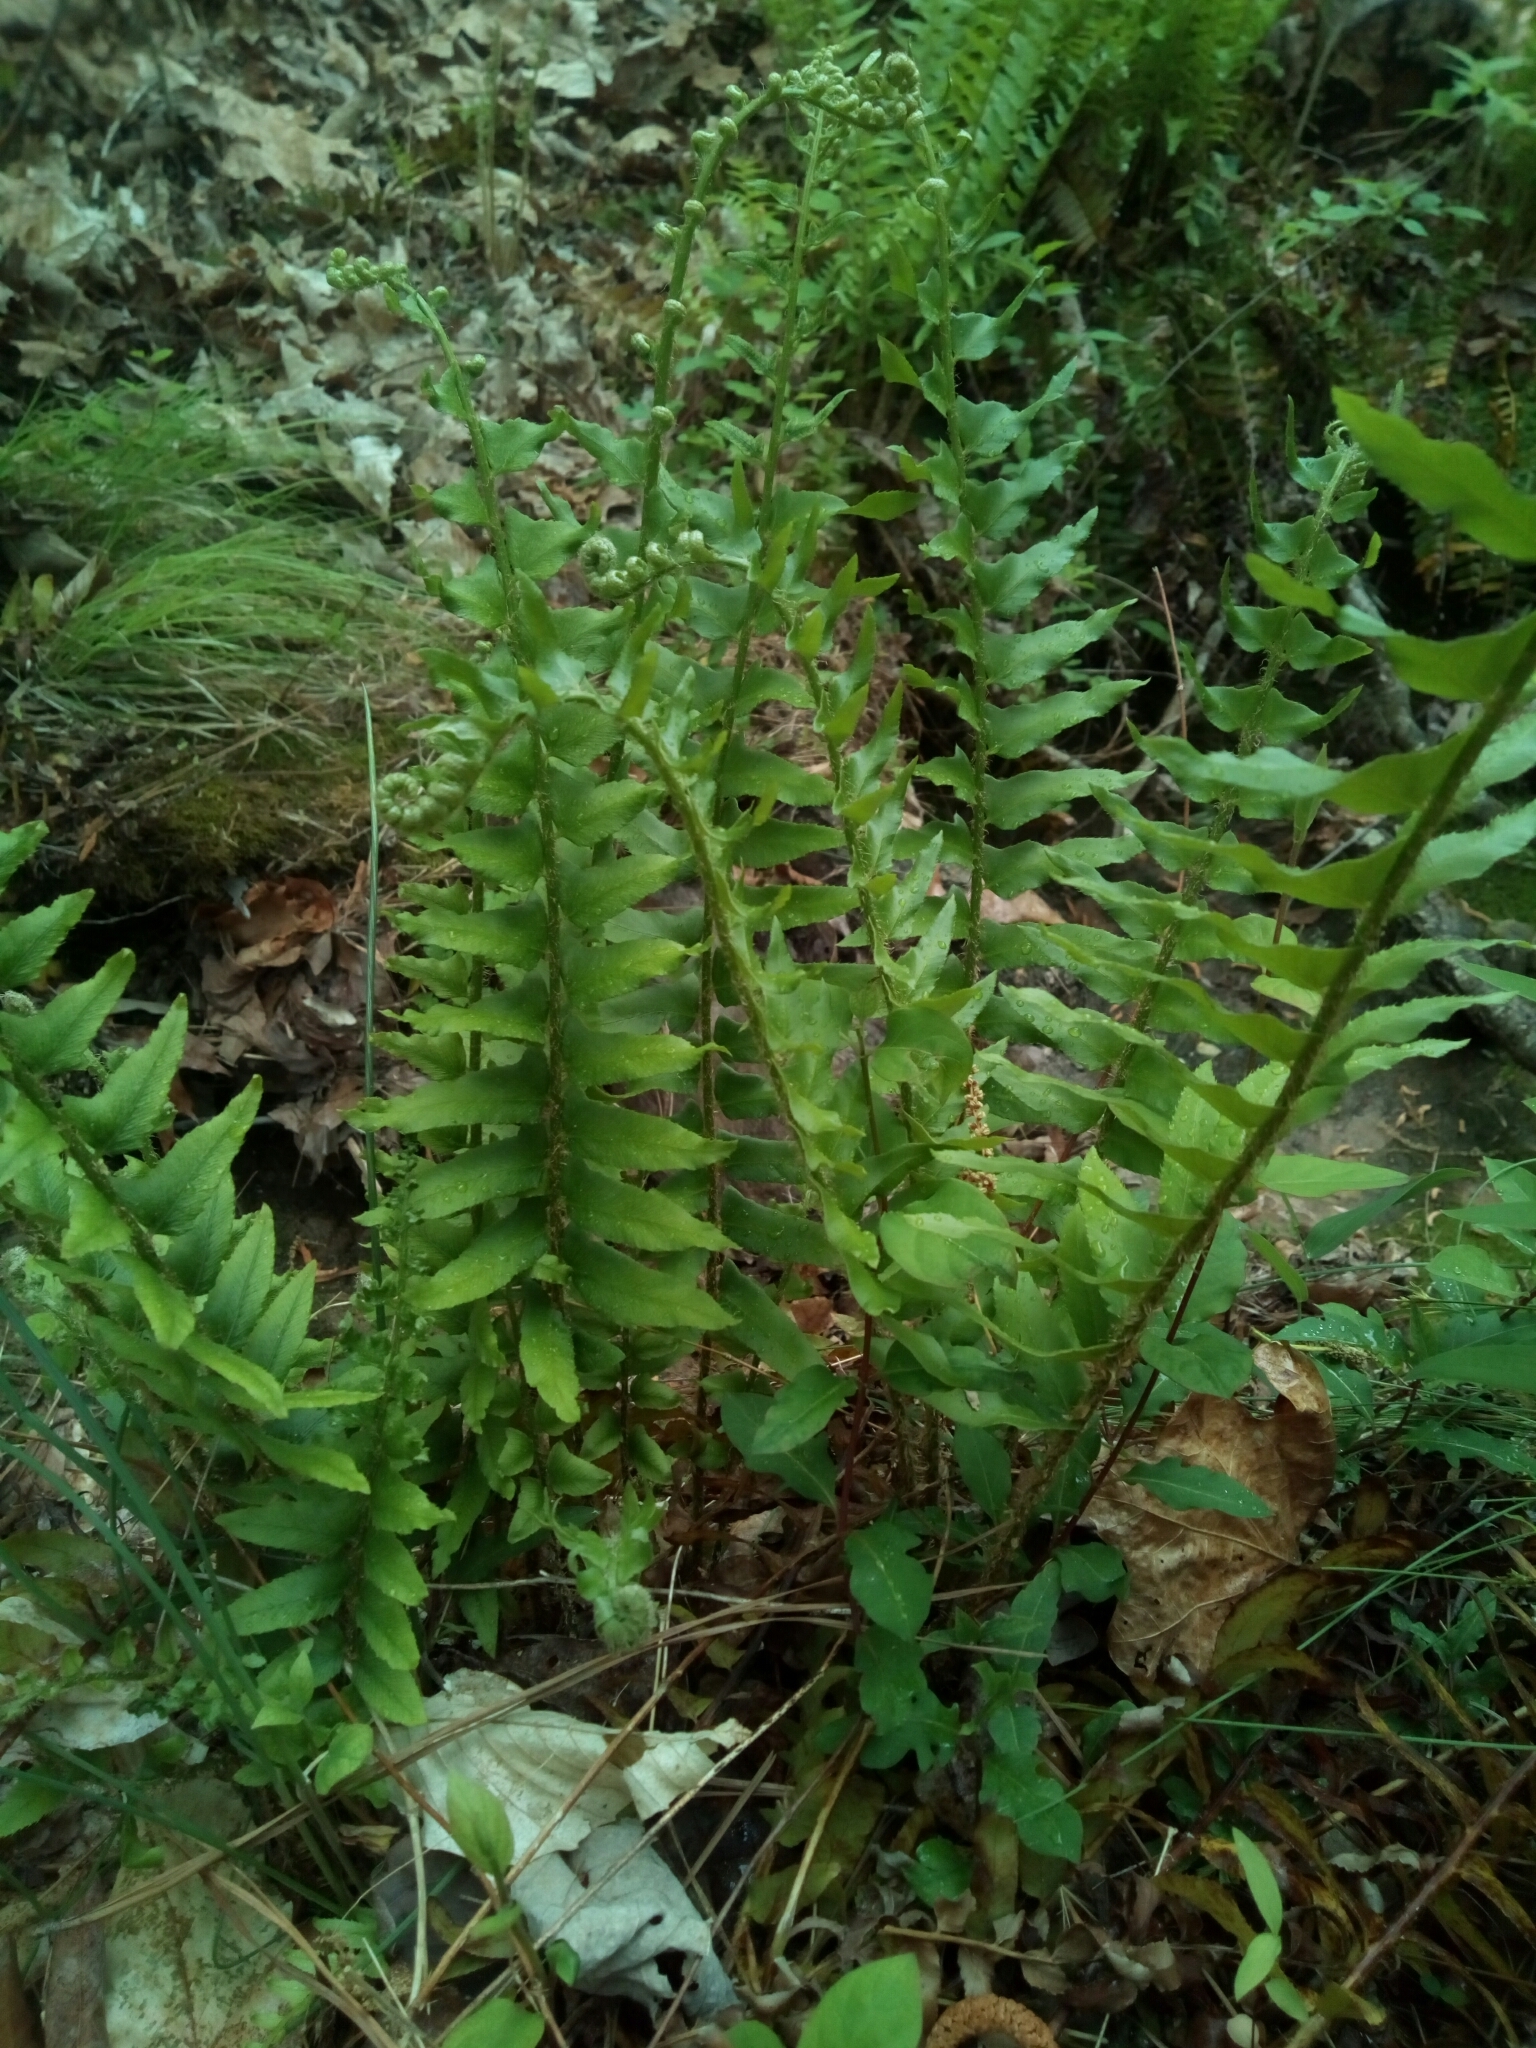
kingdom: Plantae
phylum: Tracheophyta
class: Polypodiopsida
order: Polypodiales
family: Dryopteridaceae
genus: Polystichum
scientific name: Polystichum acrostichoides
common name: Christmas fern
